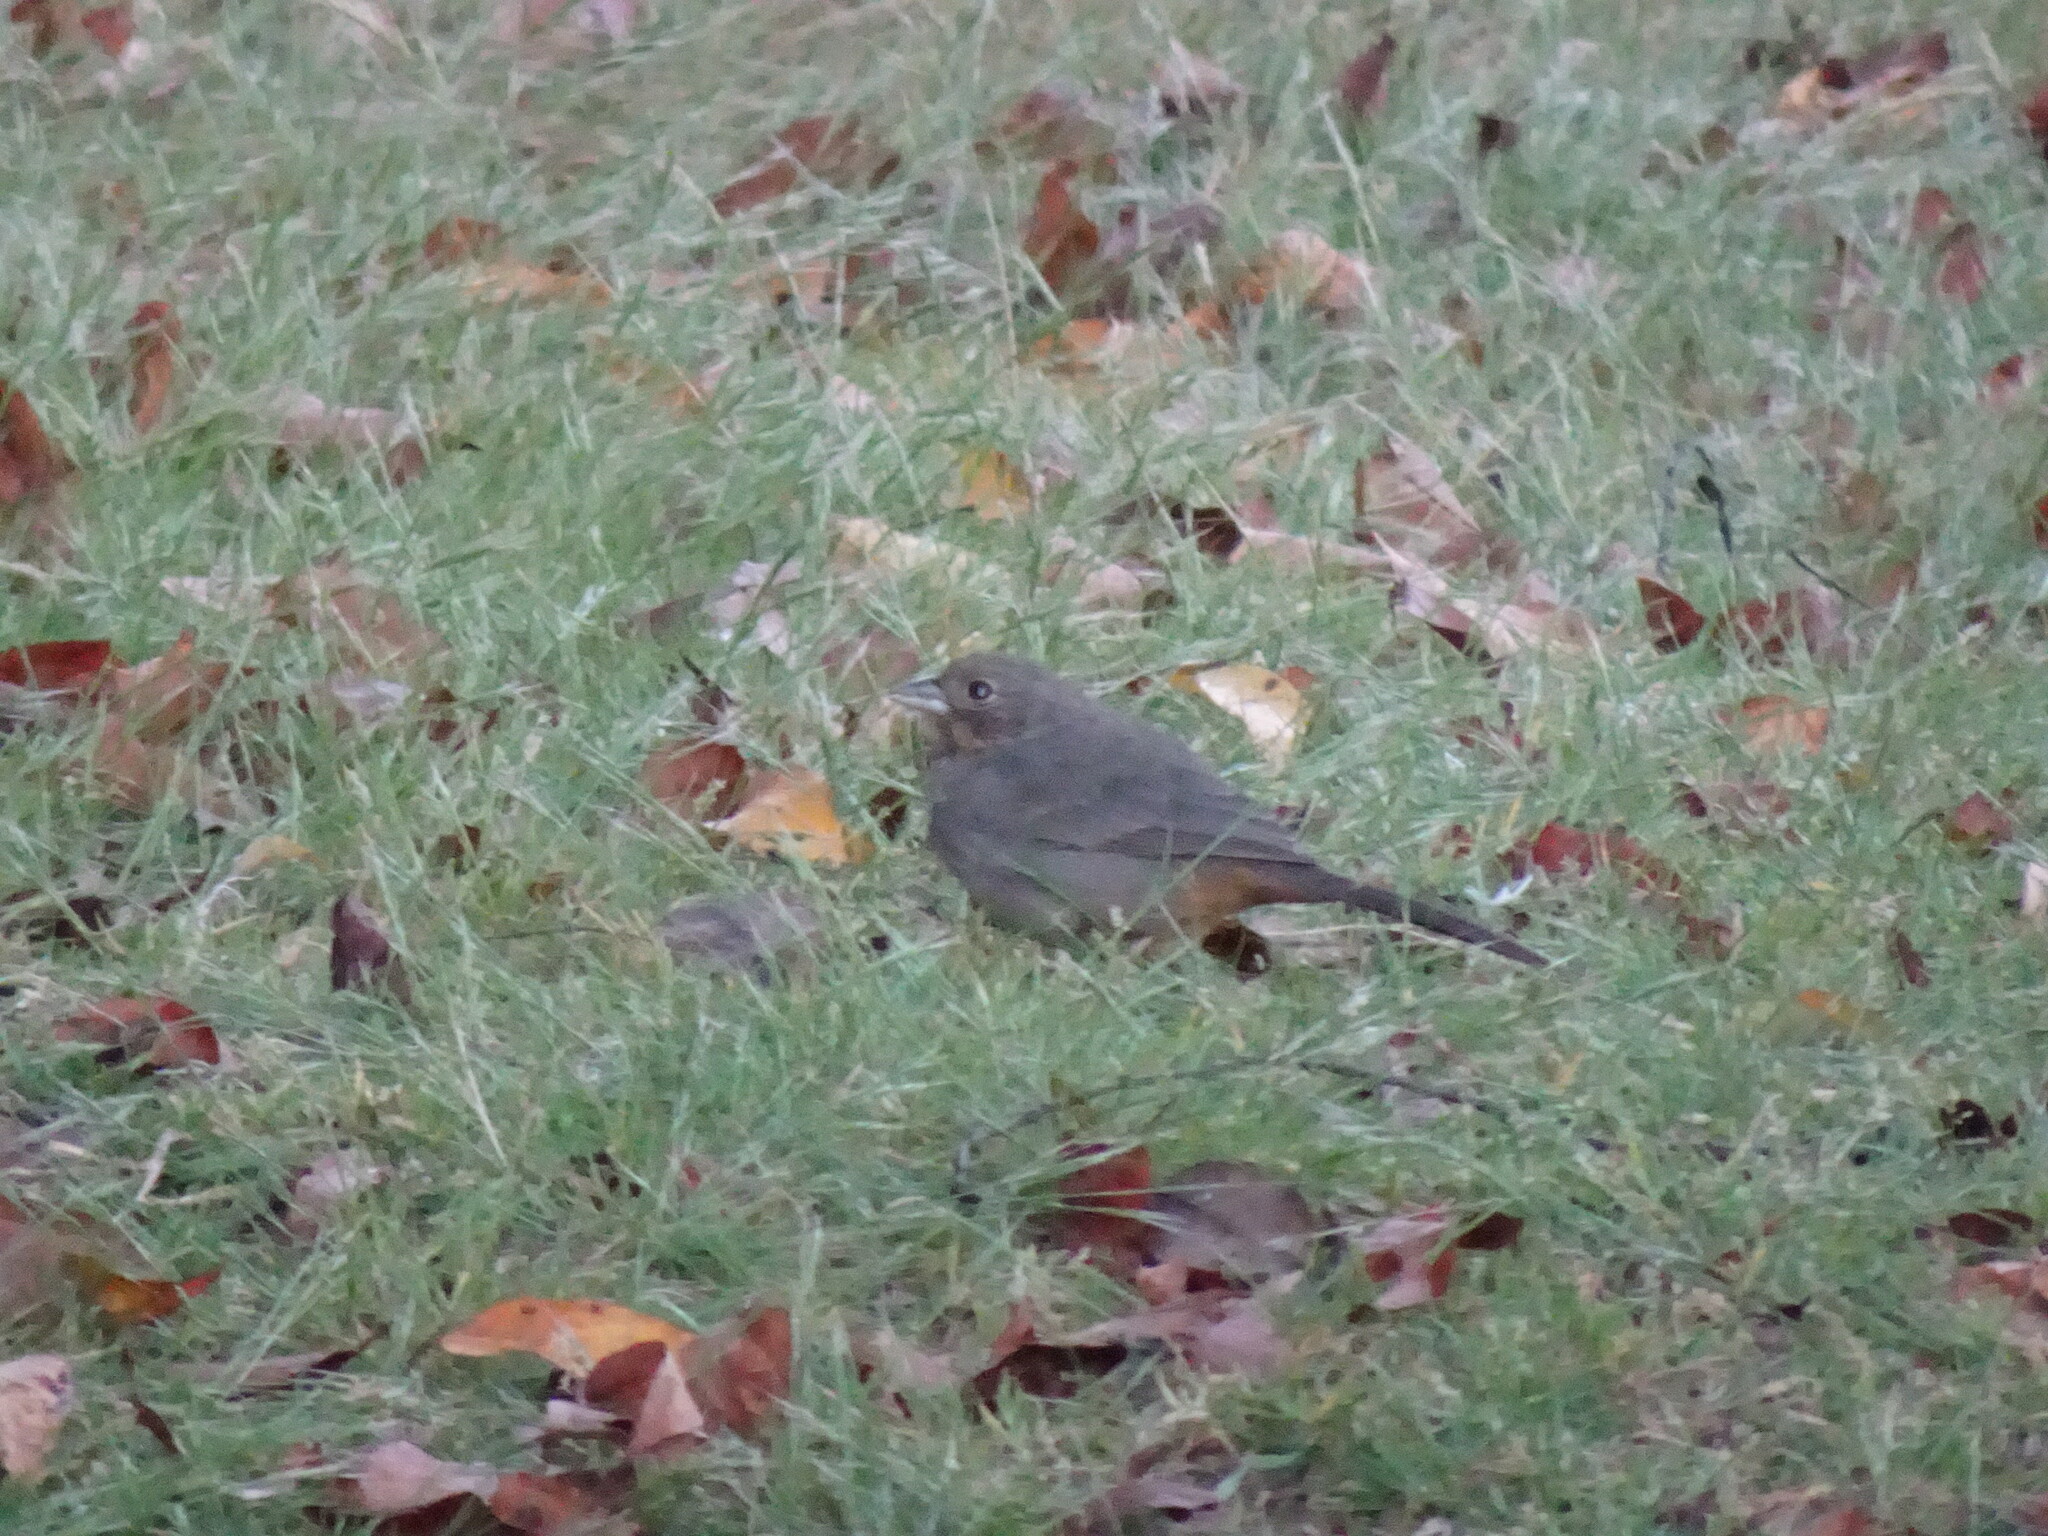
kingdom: Animalia
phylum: Chordata
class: Aves
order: Passeriformes
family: Passerellidae
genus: Melozone
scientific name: Melozone fusca
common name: Canyon towhee
